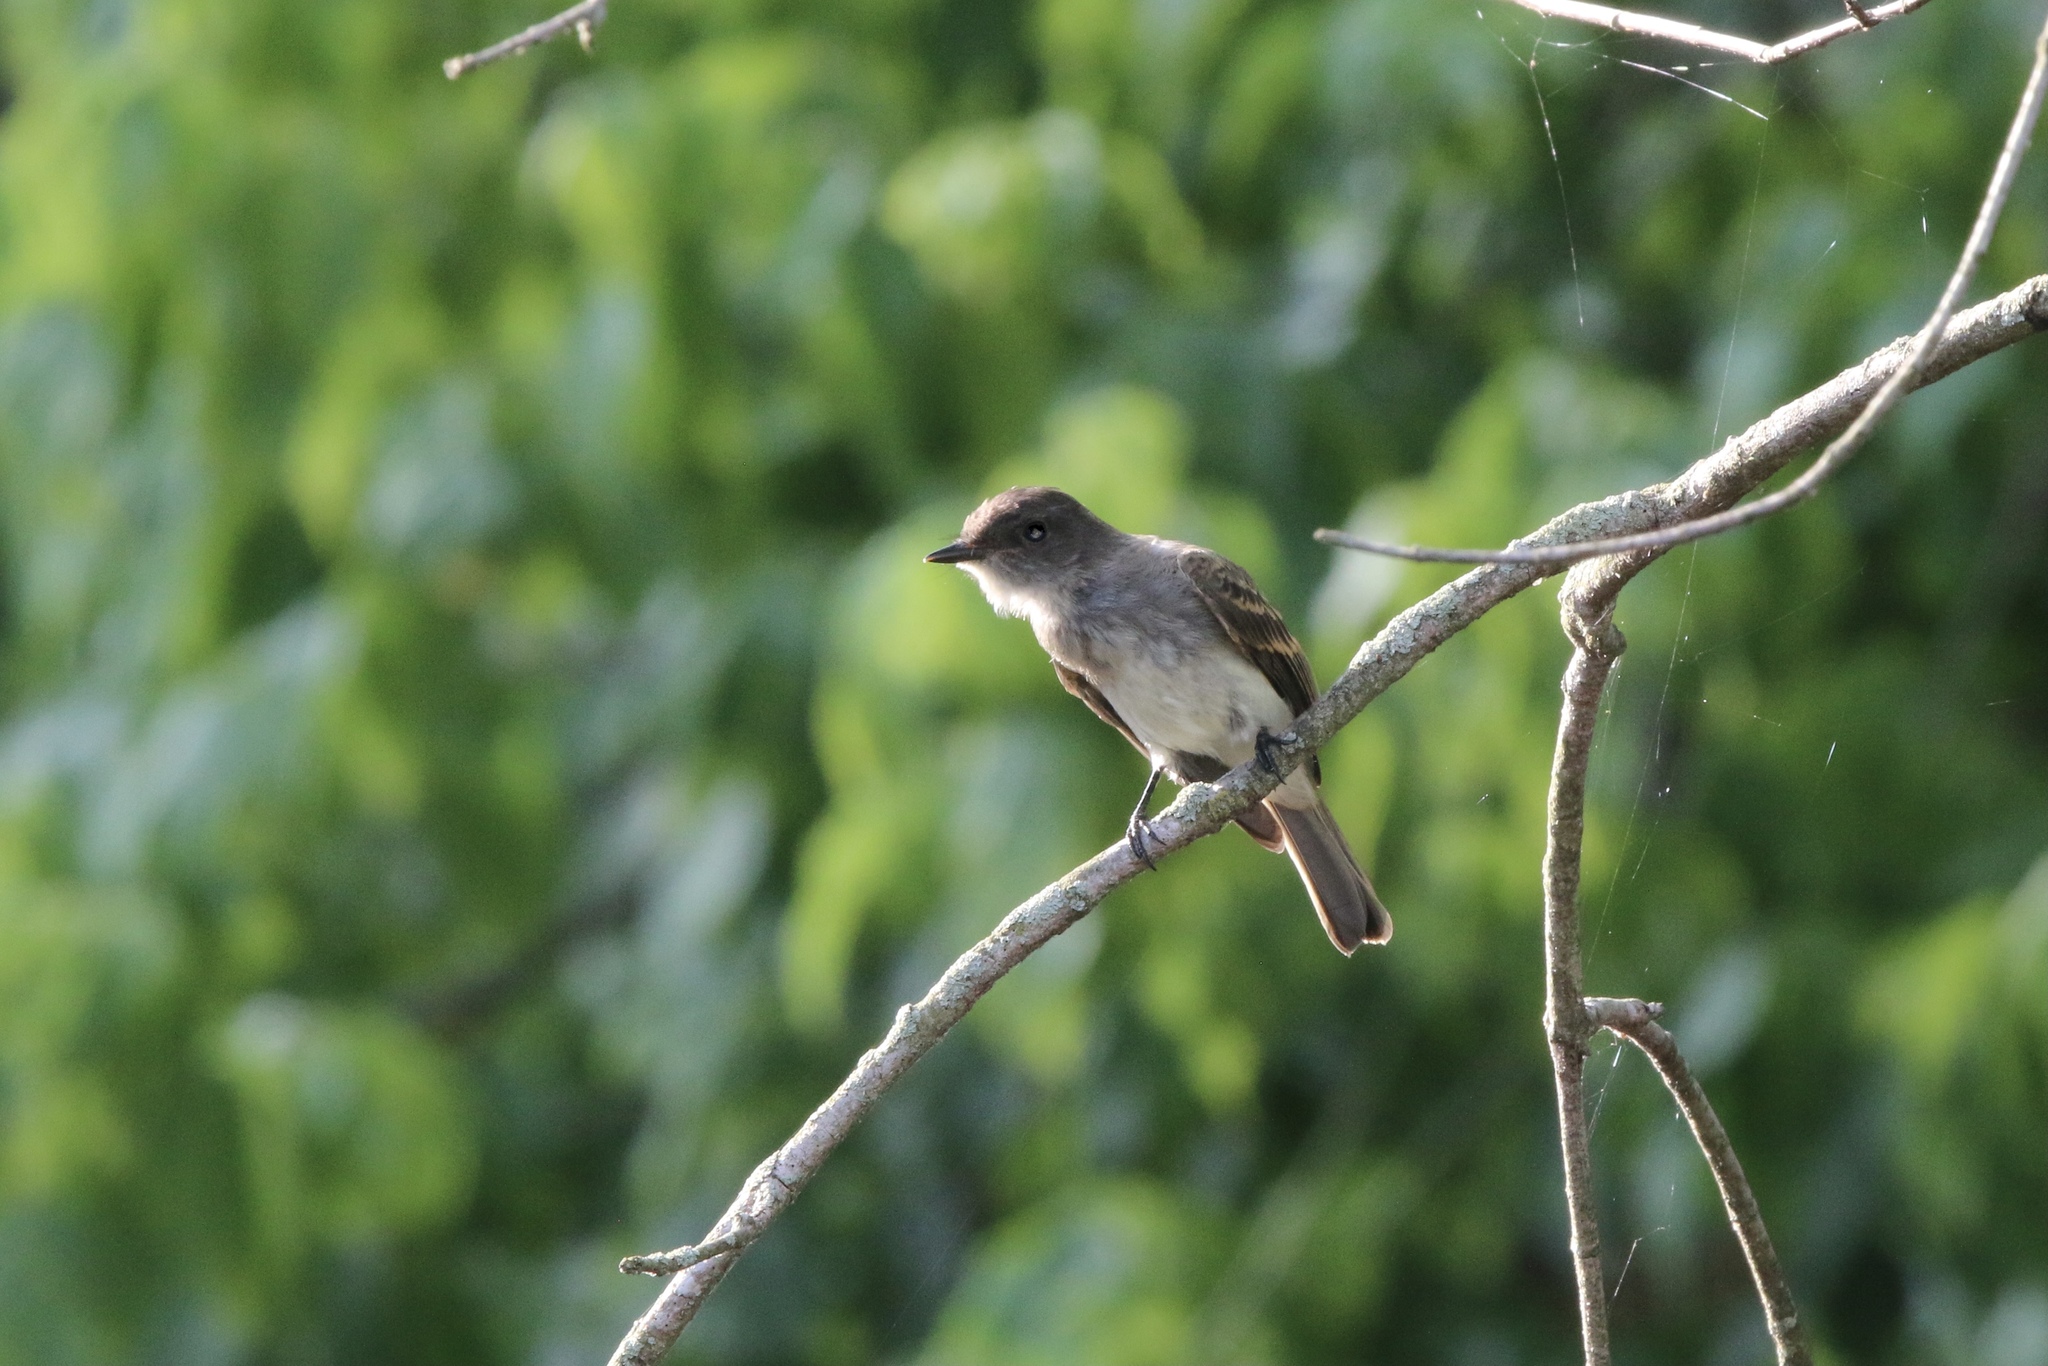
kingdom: Animalia
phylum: Chordata
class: Aves
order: Passeriformes
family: Tyrannidae
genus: Contopus
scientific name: Contopus virens
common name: Eastern wood-pewee
